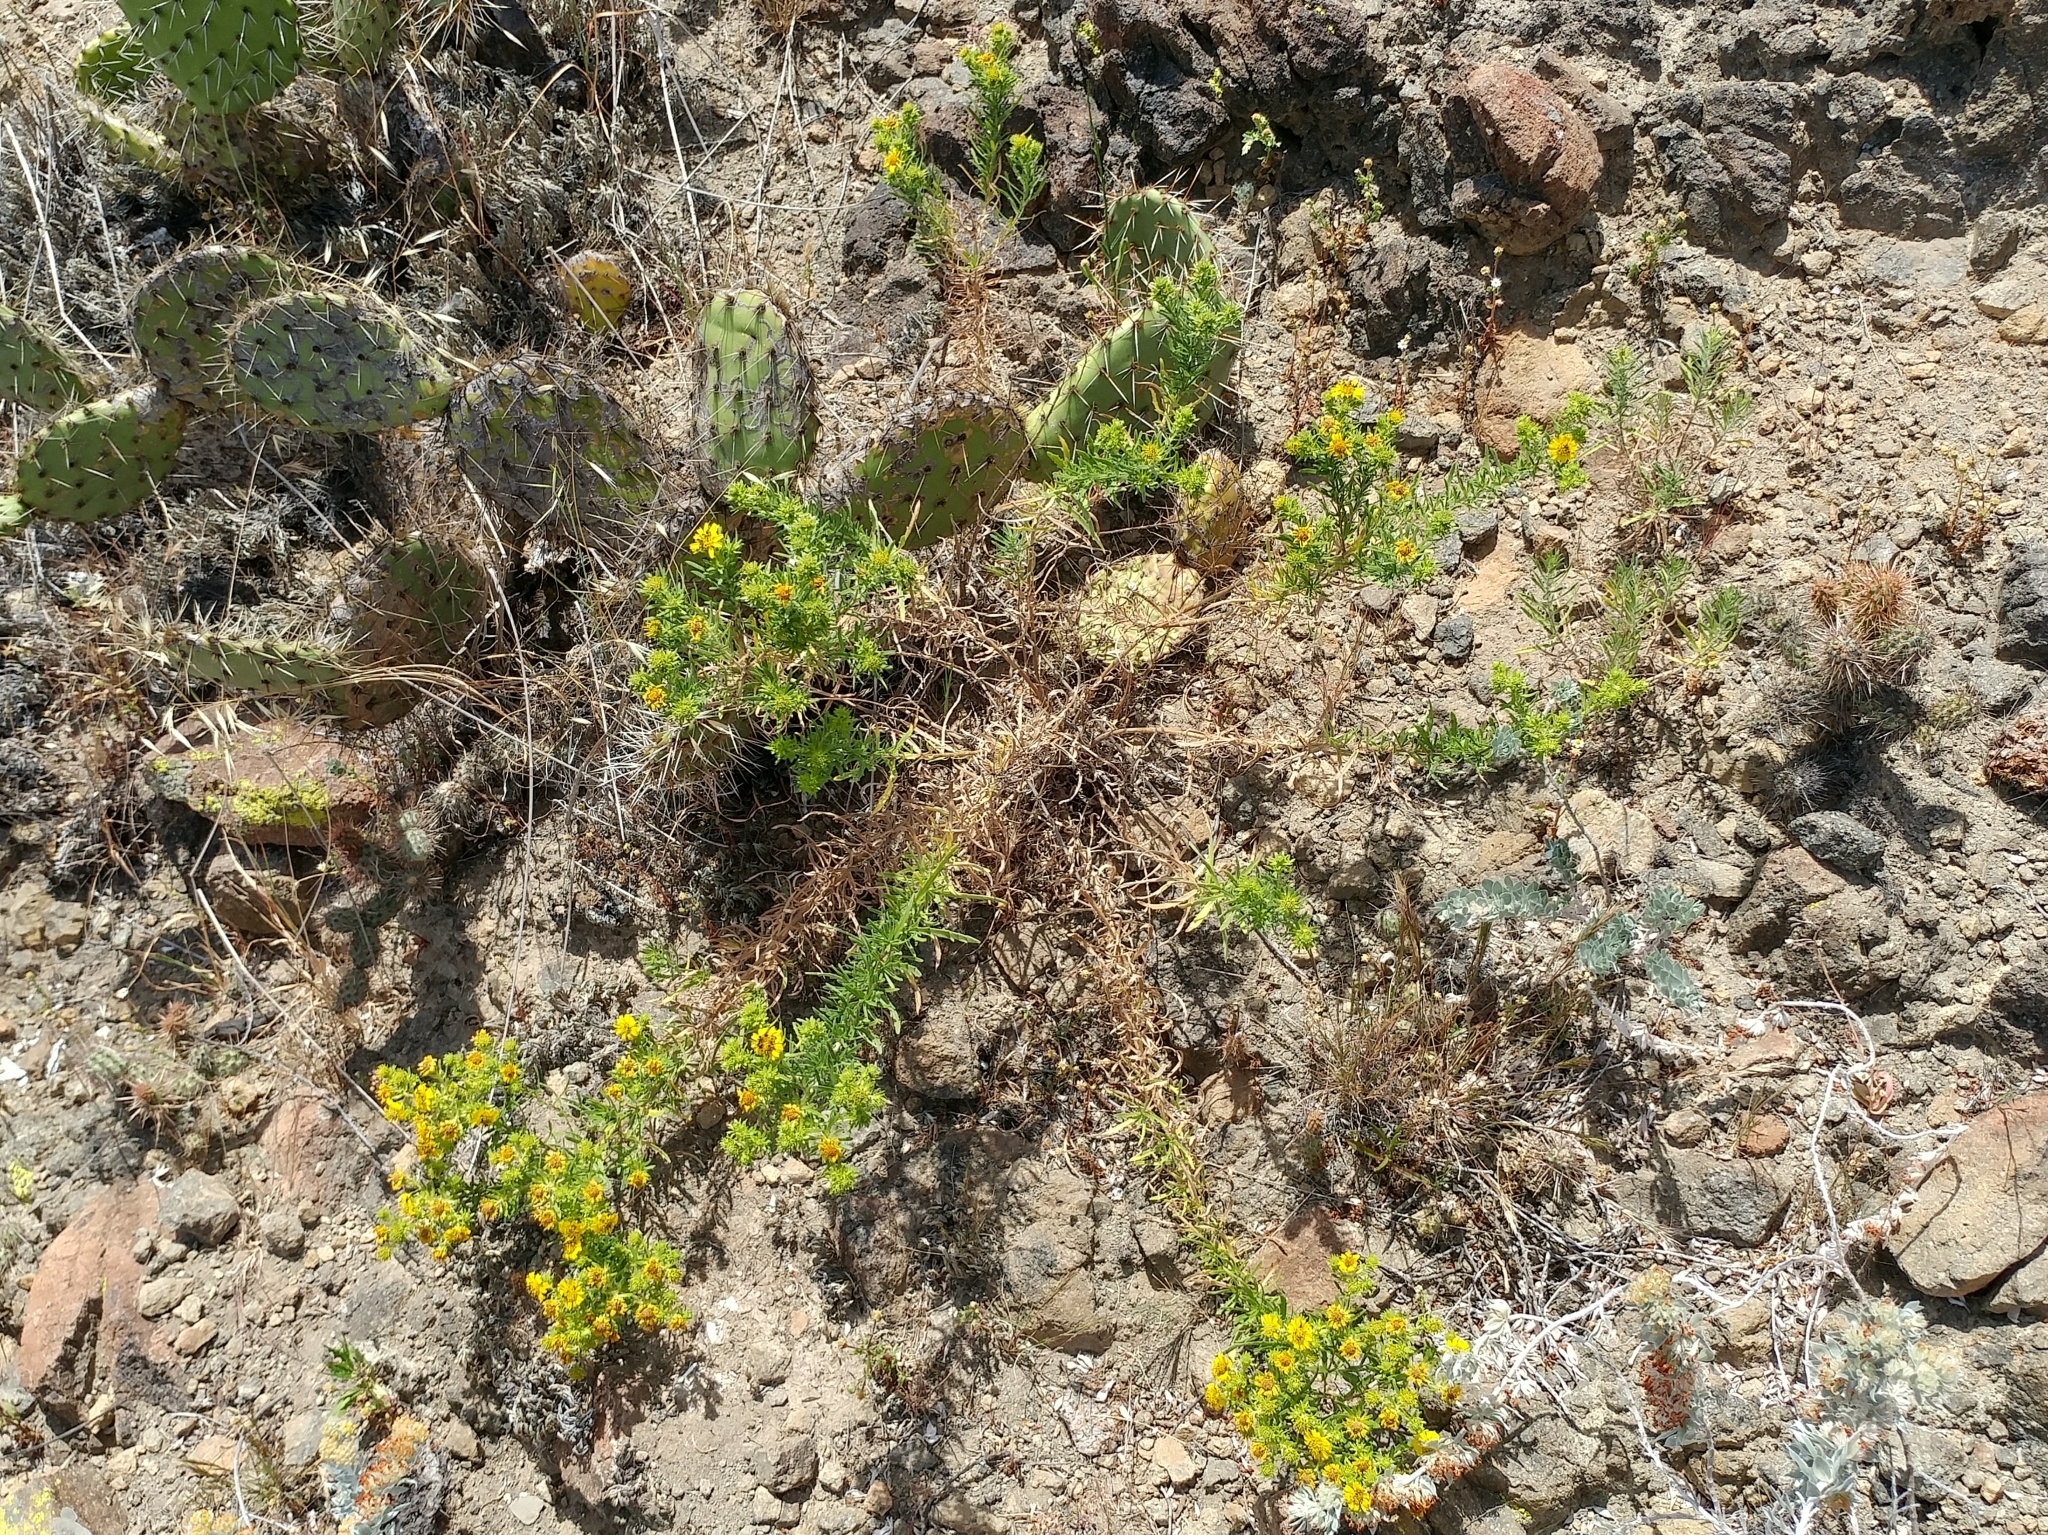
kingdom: Plantae
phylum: Tracheophyta
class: Magnoliopsida
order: Asterales
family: Asteraceae
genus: Deinandra
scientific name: Deinandra clementina
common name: Island tarplant
